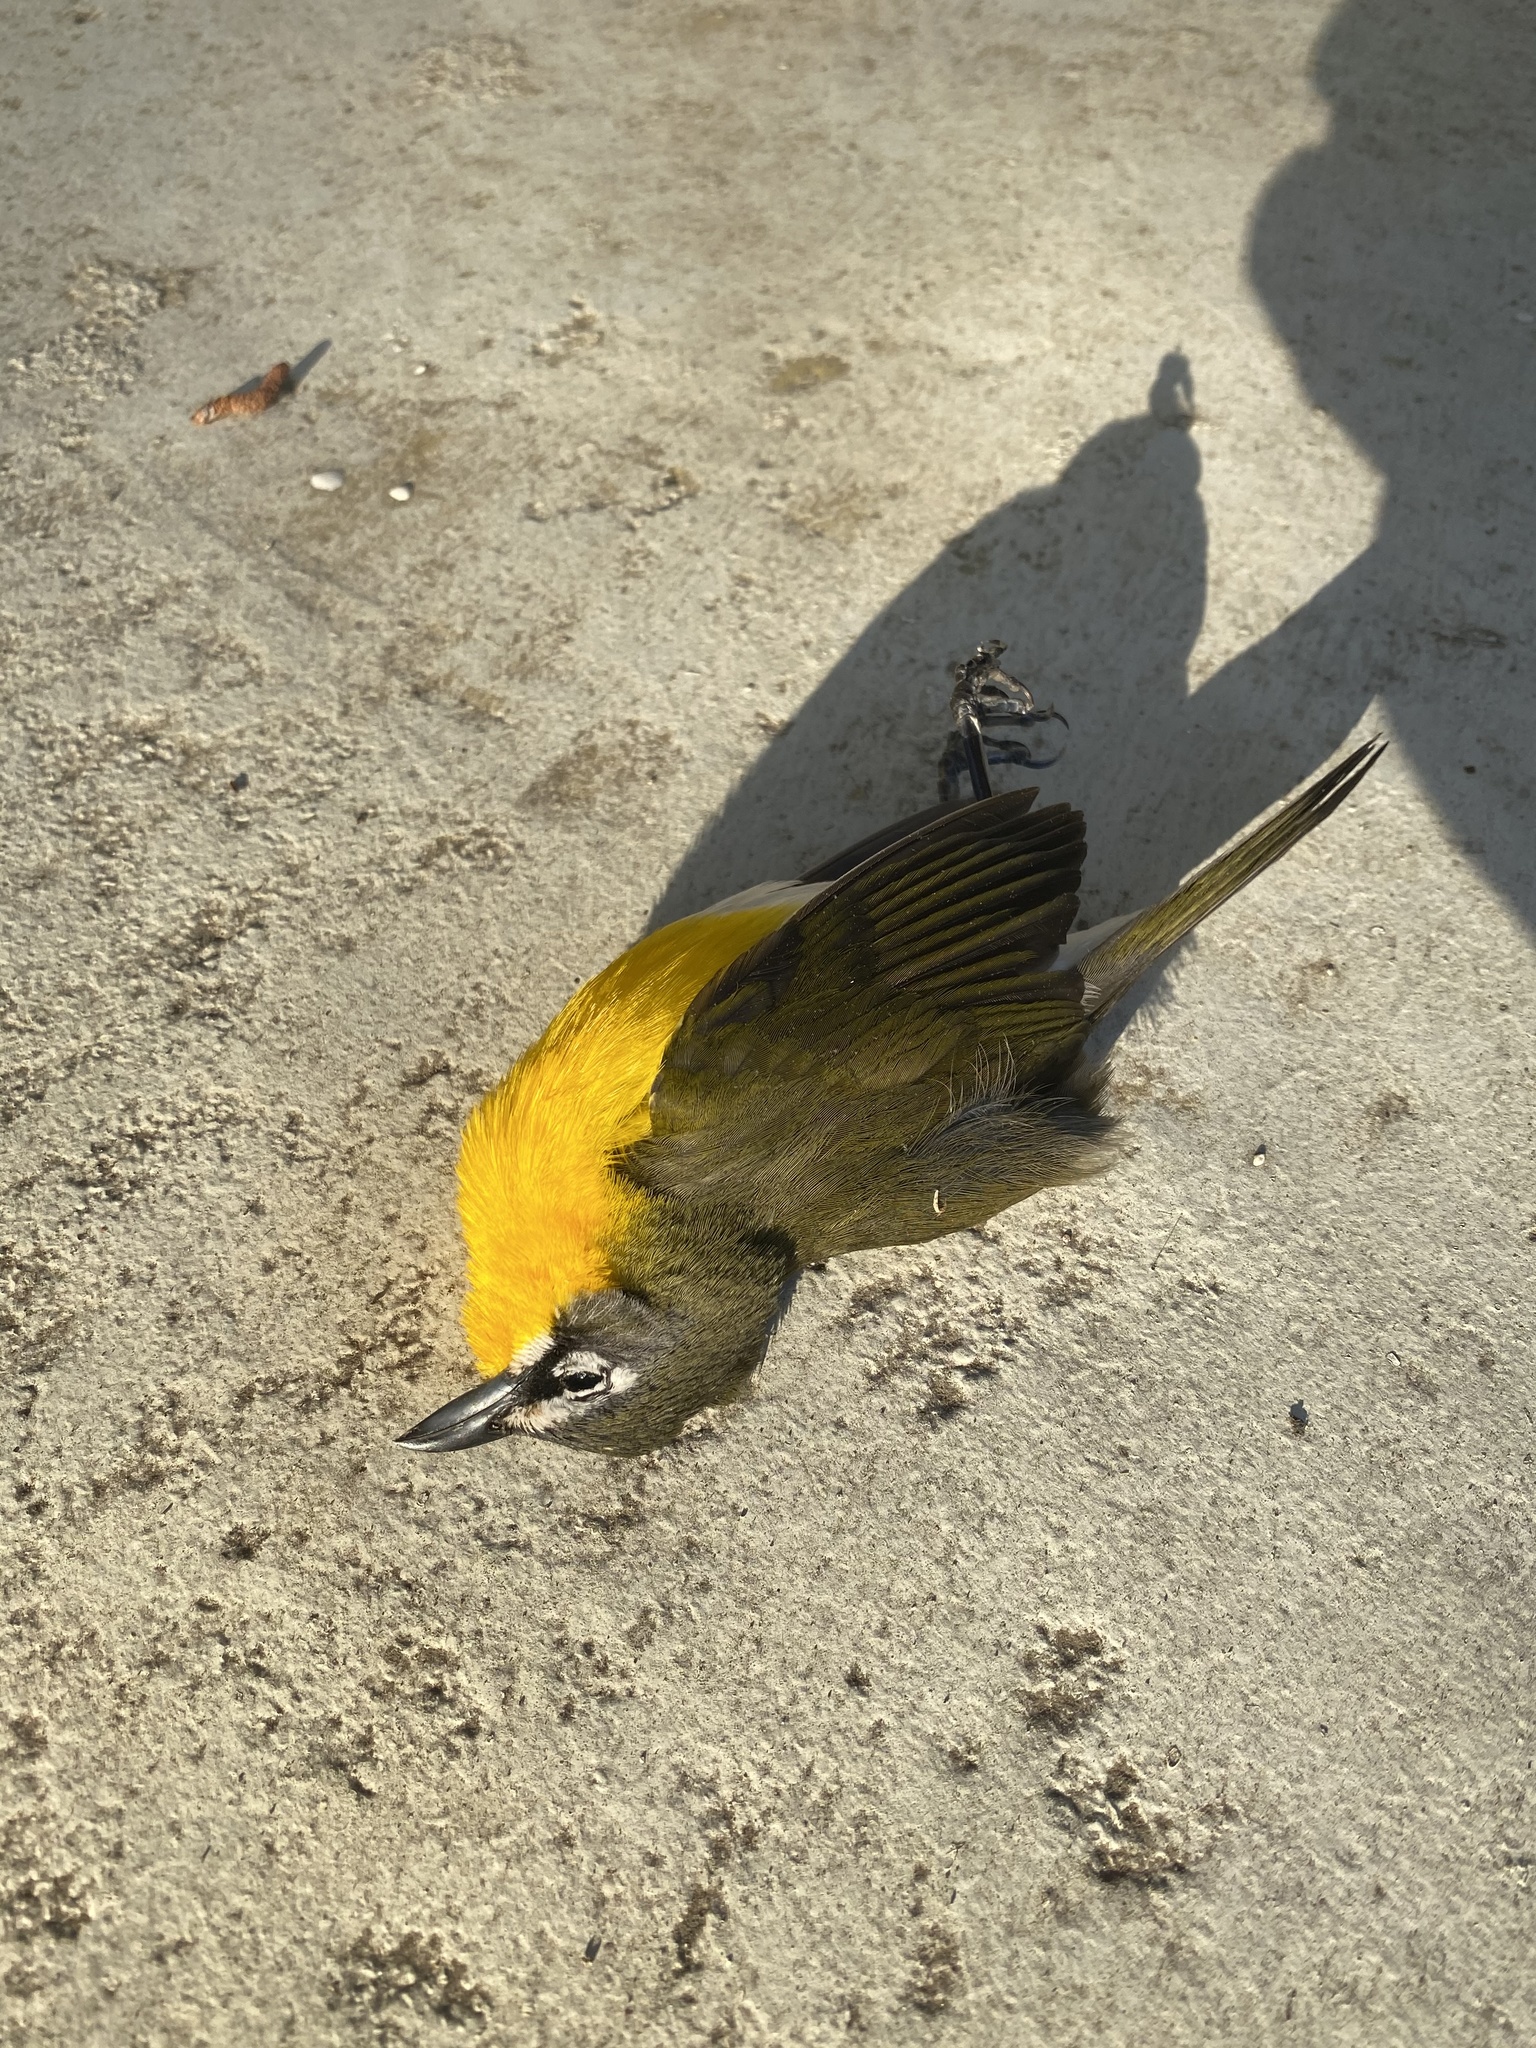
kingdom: Animalia
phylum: Chordata
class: Aves
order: Passeriformes
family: Parulidae
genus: Icteria
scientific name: Icteria virens
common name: Yellow-breasted chat
